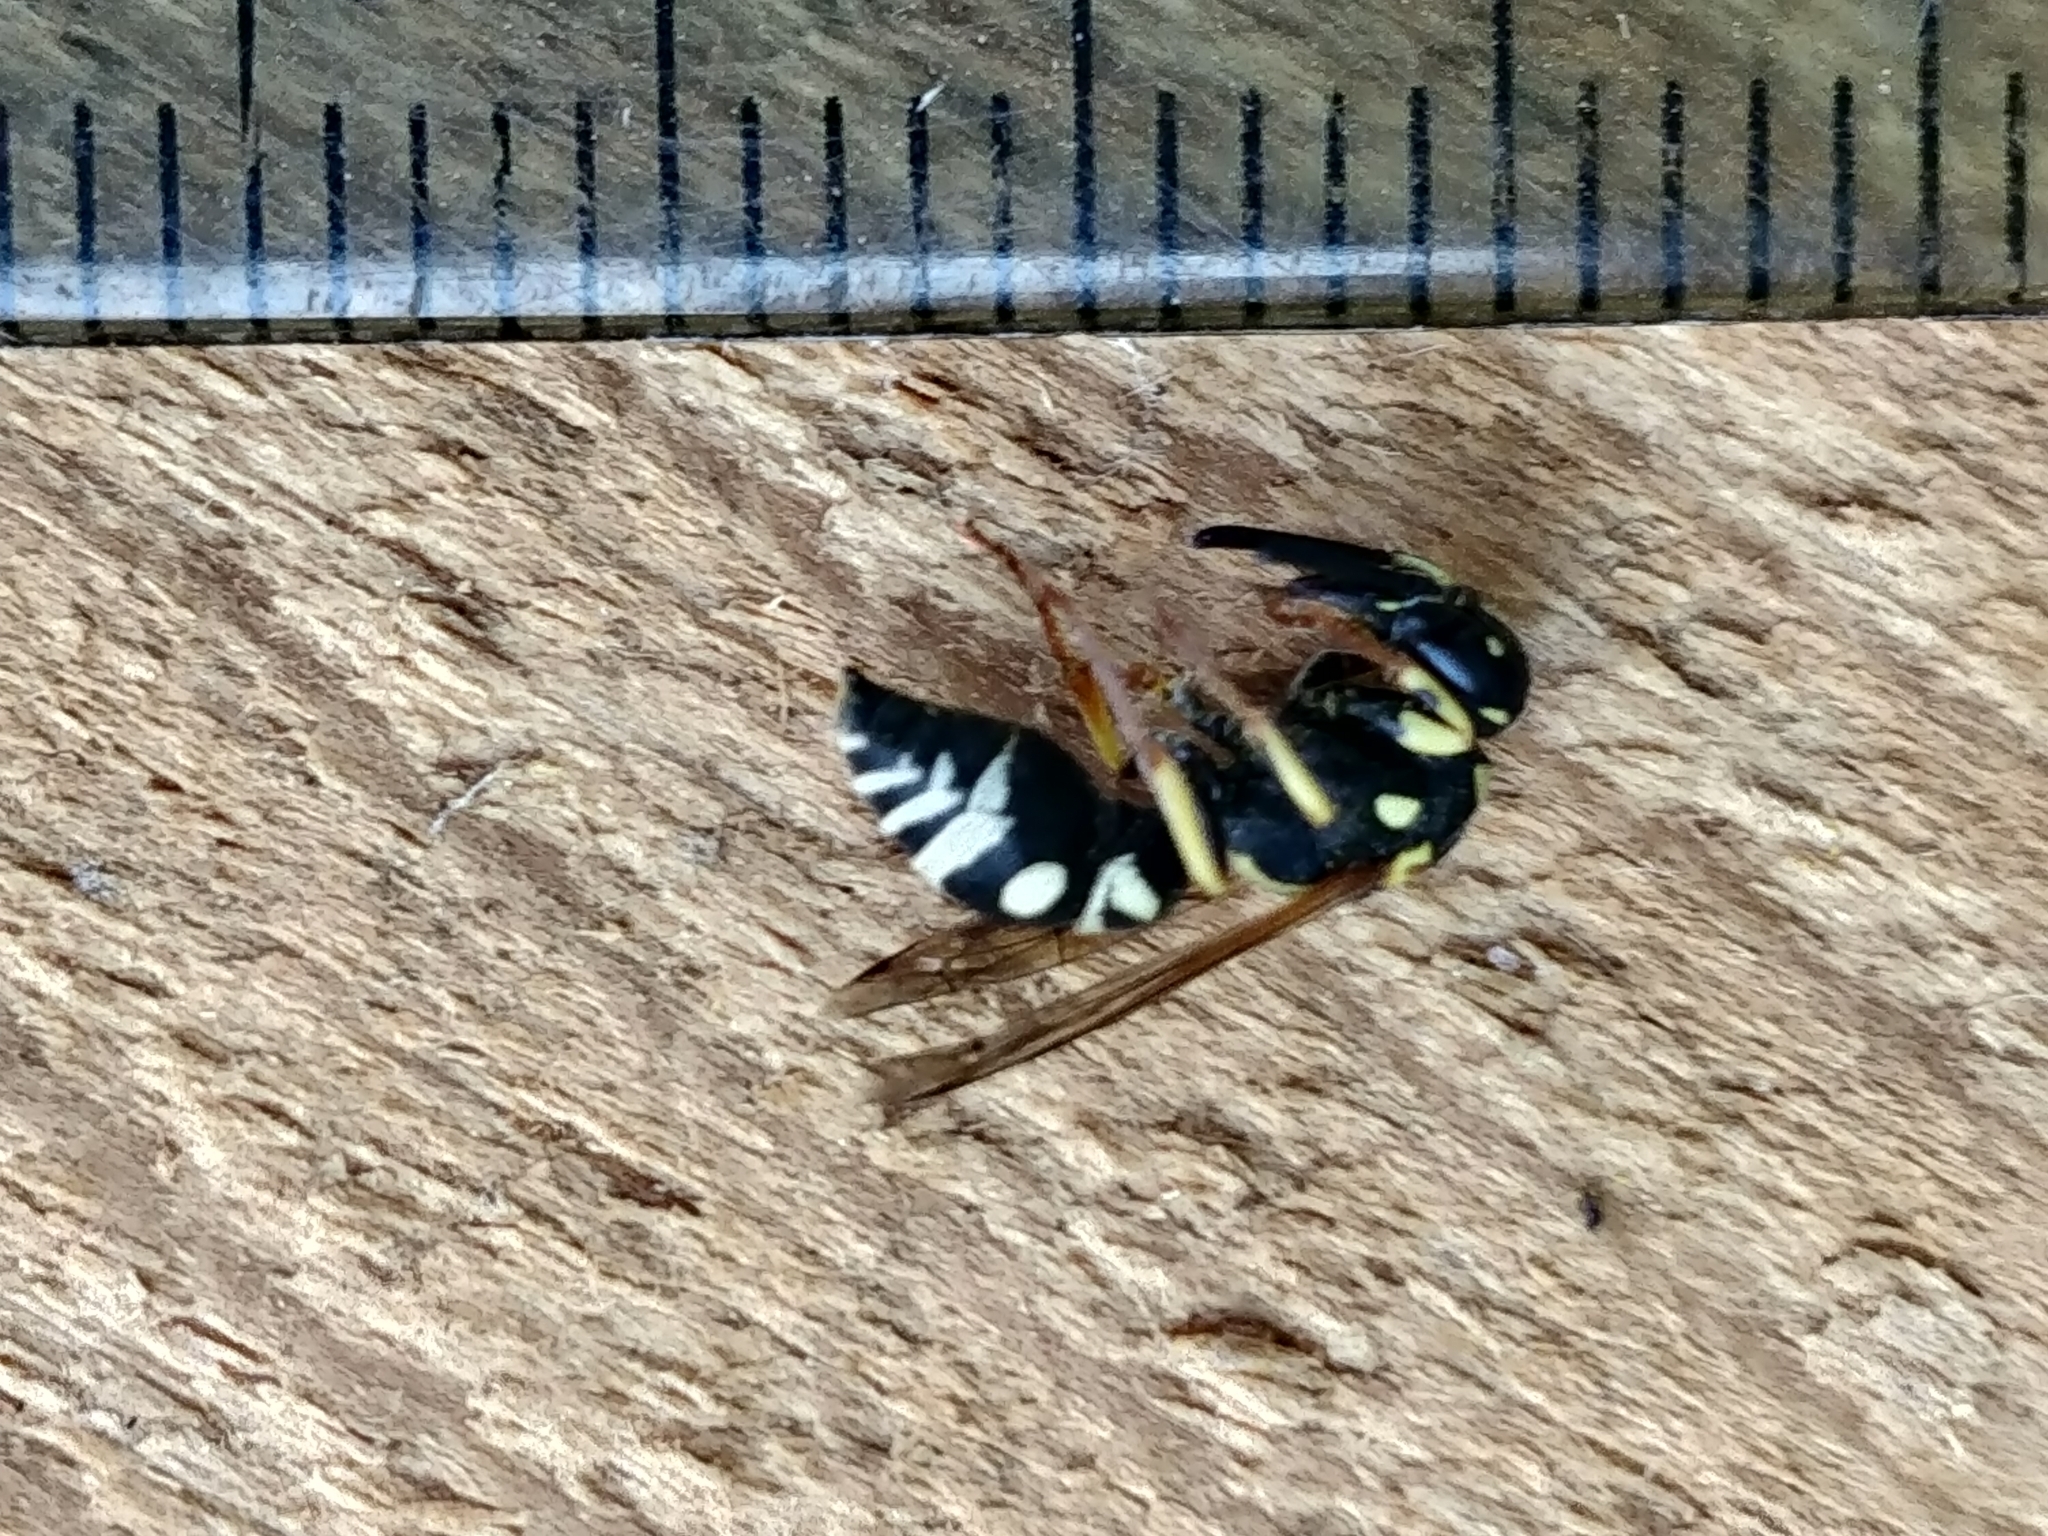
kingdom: Animalia
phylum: Arthropoda
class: Insecta
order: Hymenoptera
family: Eumenidae
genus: Rhynchalastor
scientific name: Rhynchalastor anormis
